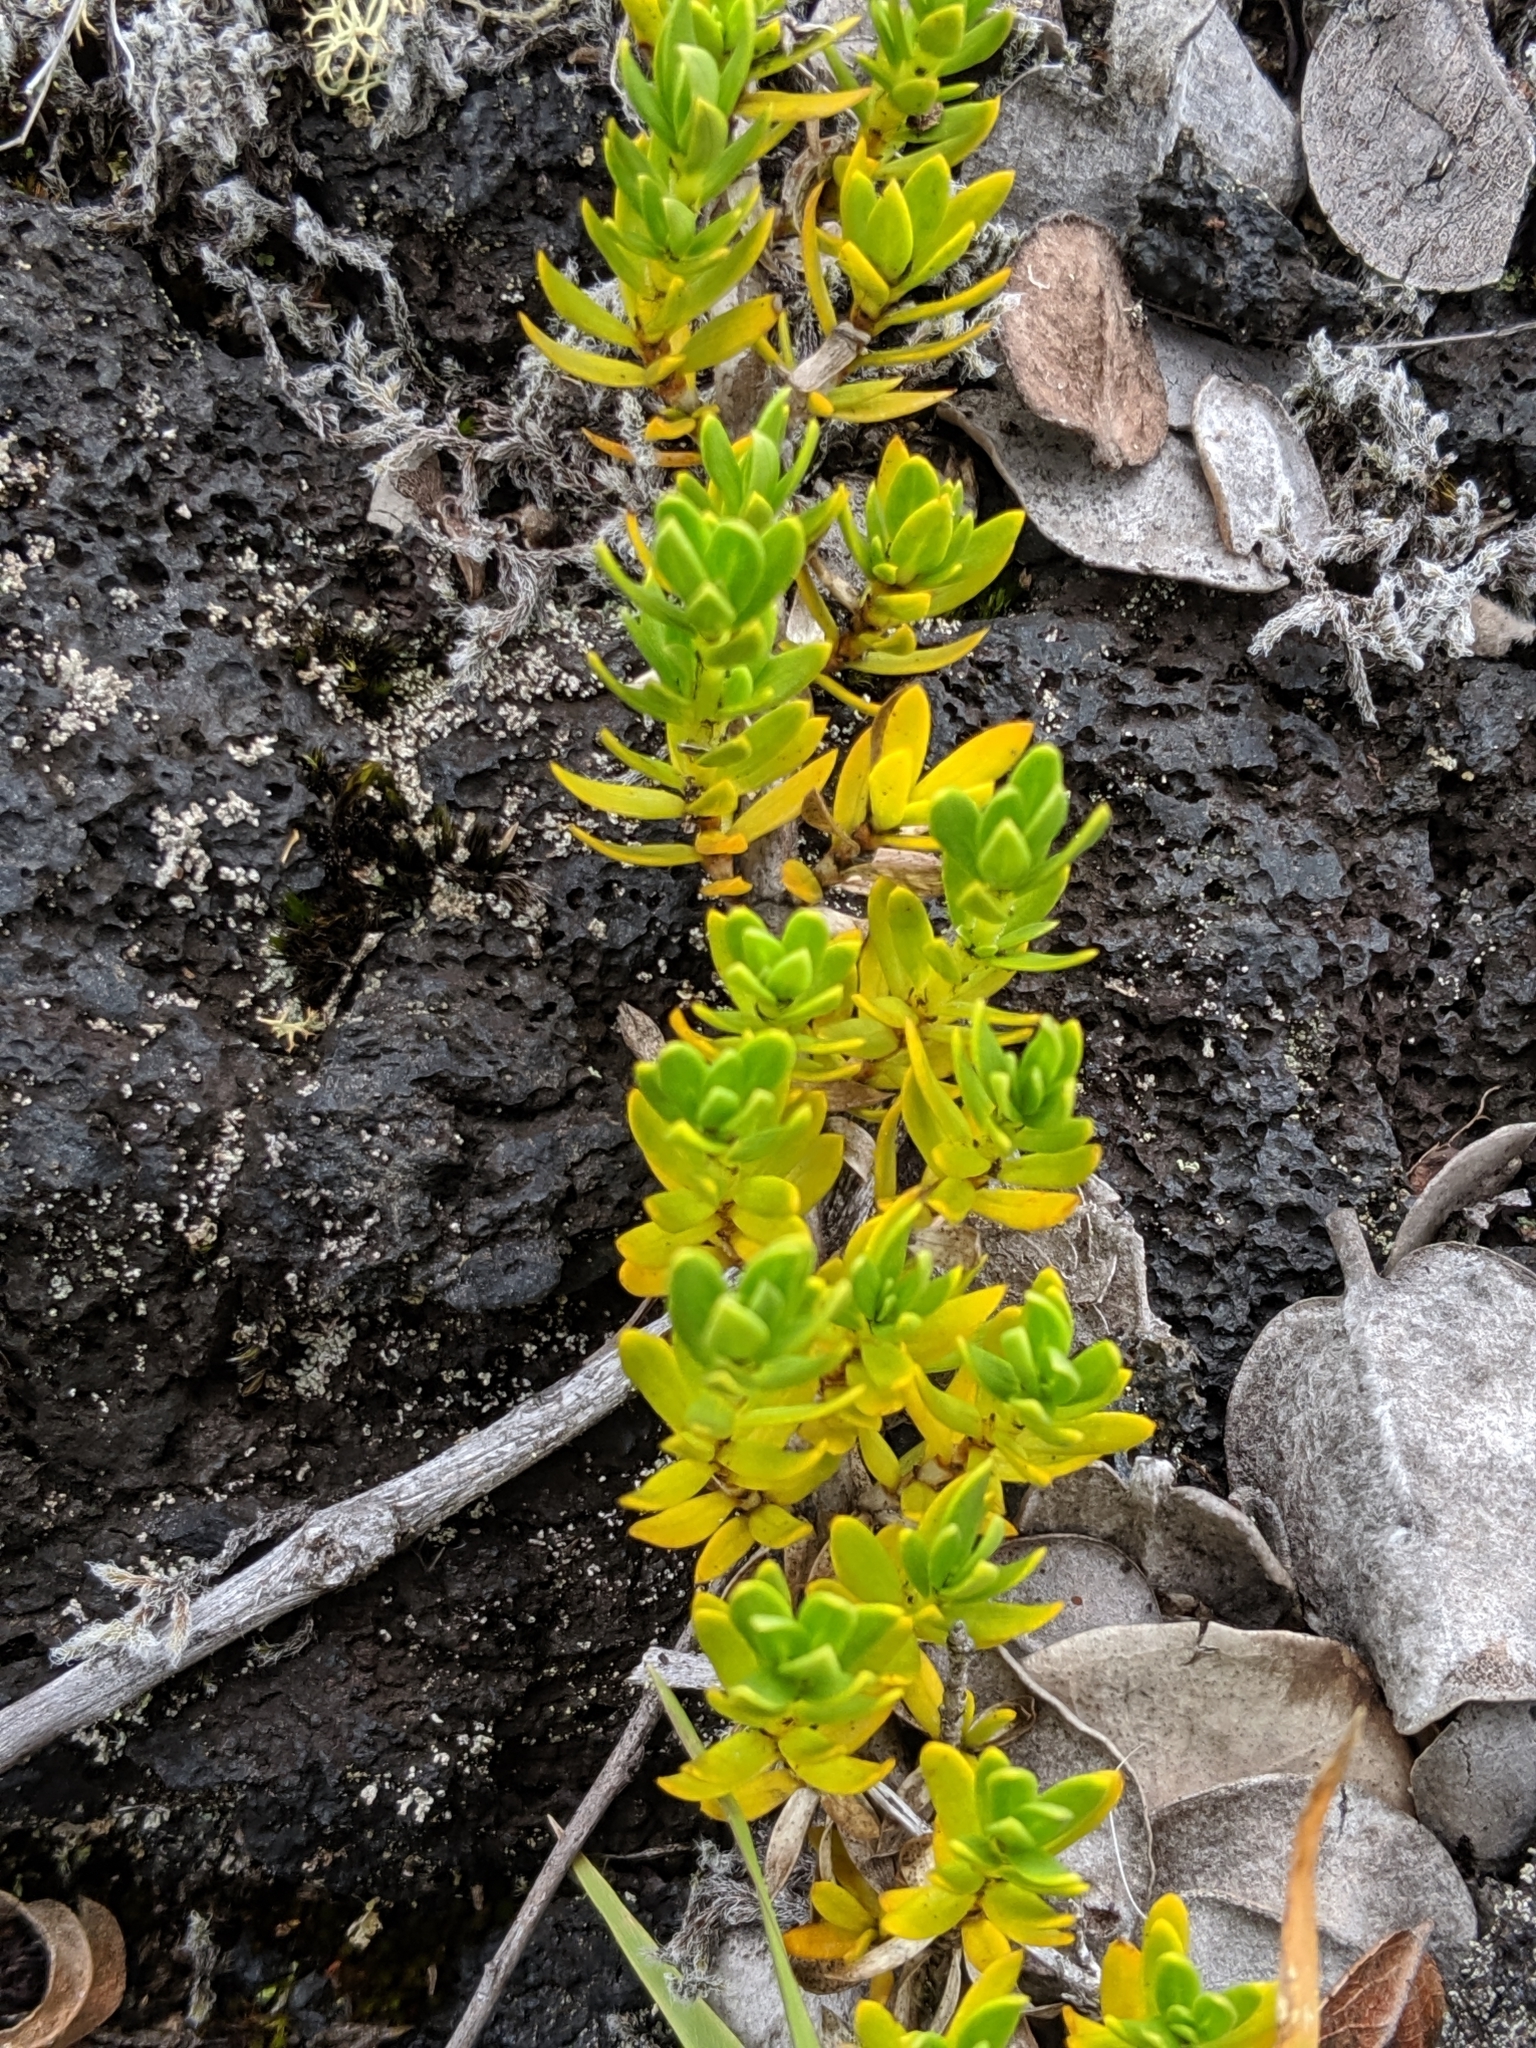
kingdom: Plantae
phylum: Tracheophyta
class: Magnoliopsida
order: Gentianales
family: Rubiaceae
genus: Coprosma
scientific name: Coprosma ernodeoides
